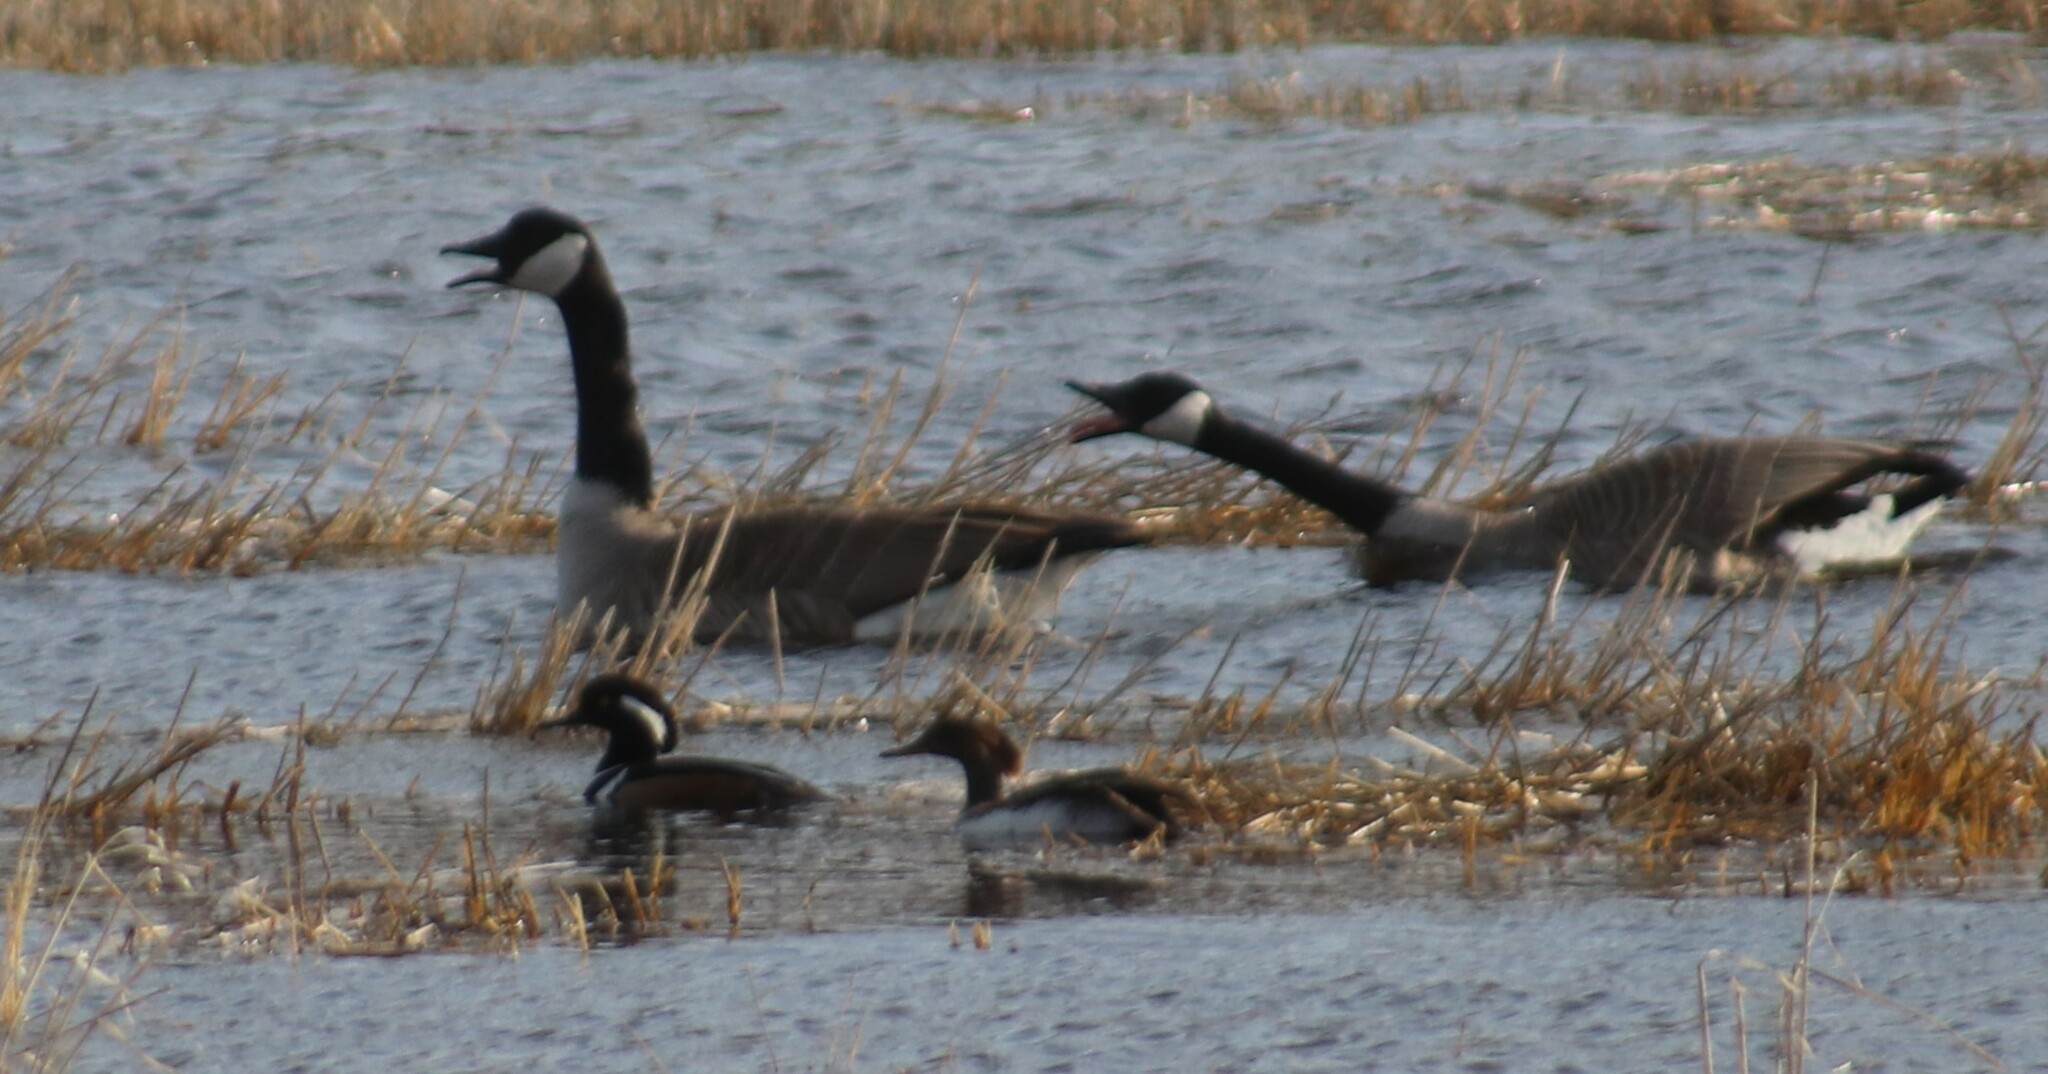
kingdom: Animalia
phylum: Chordata
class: Aves
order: Anseriformes
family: Anatidae
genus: Lophodytes
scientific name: Lophodytes cucullatus
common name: Hooded merganser
